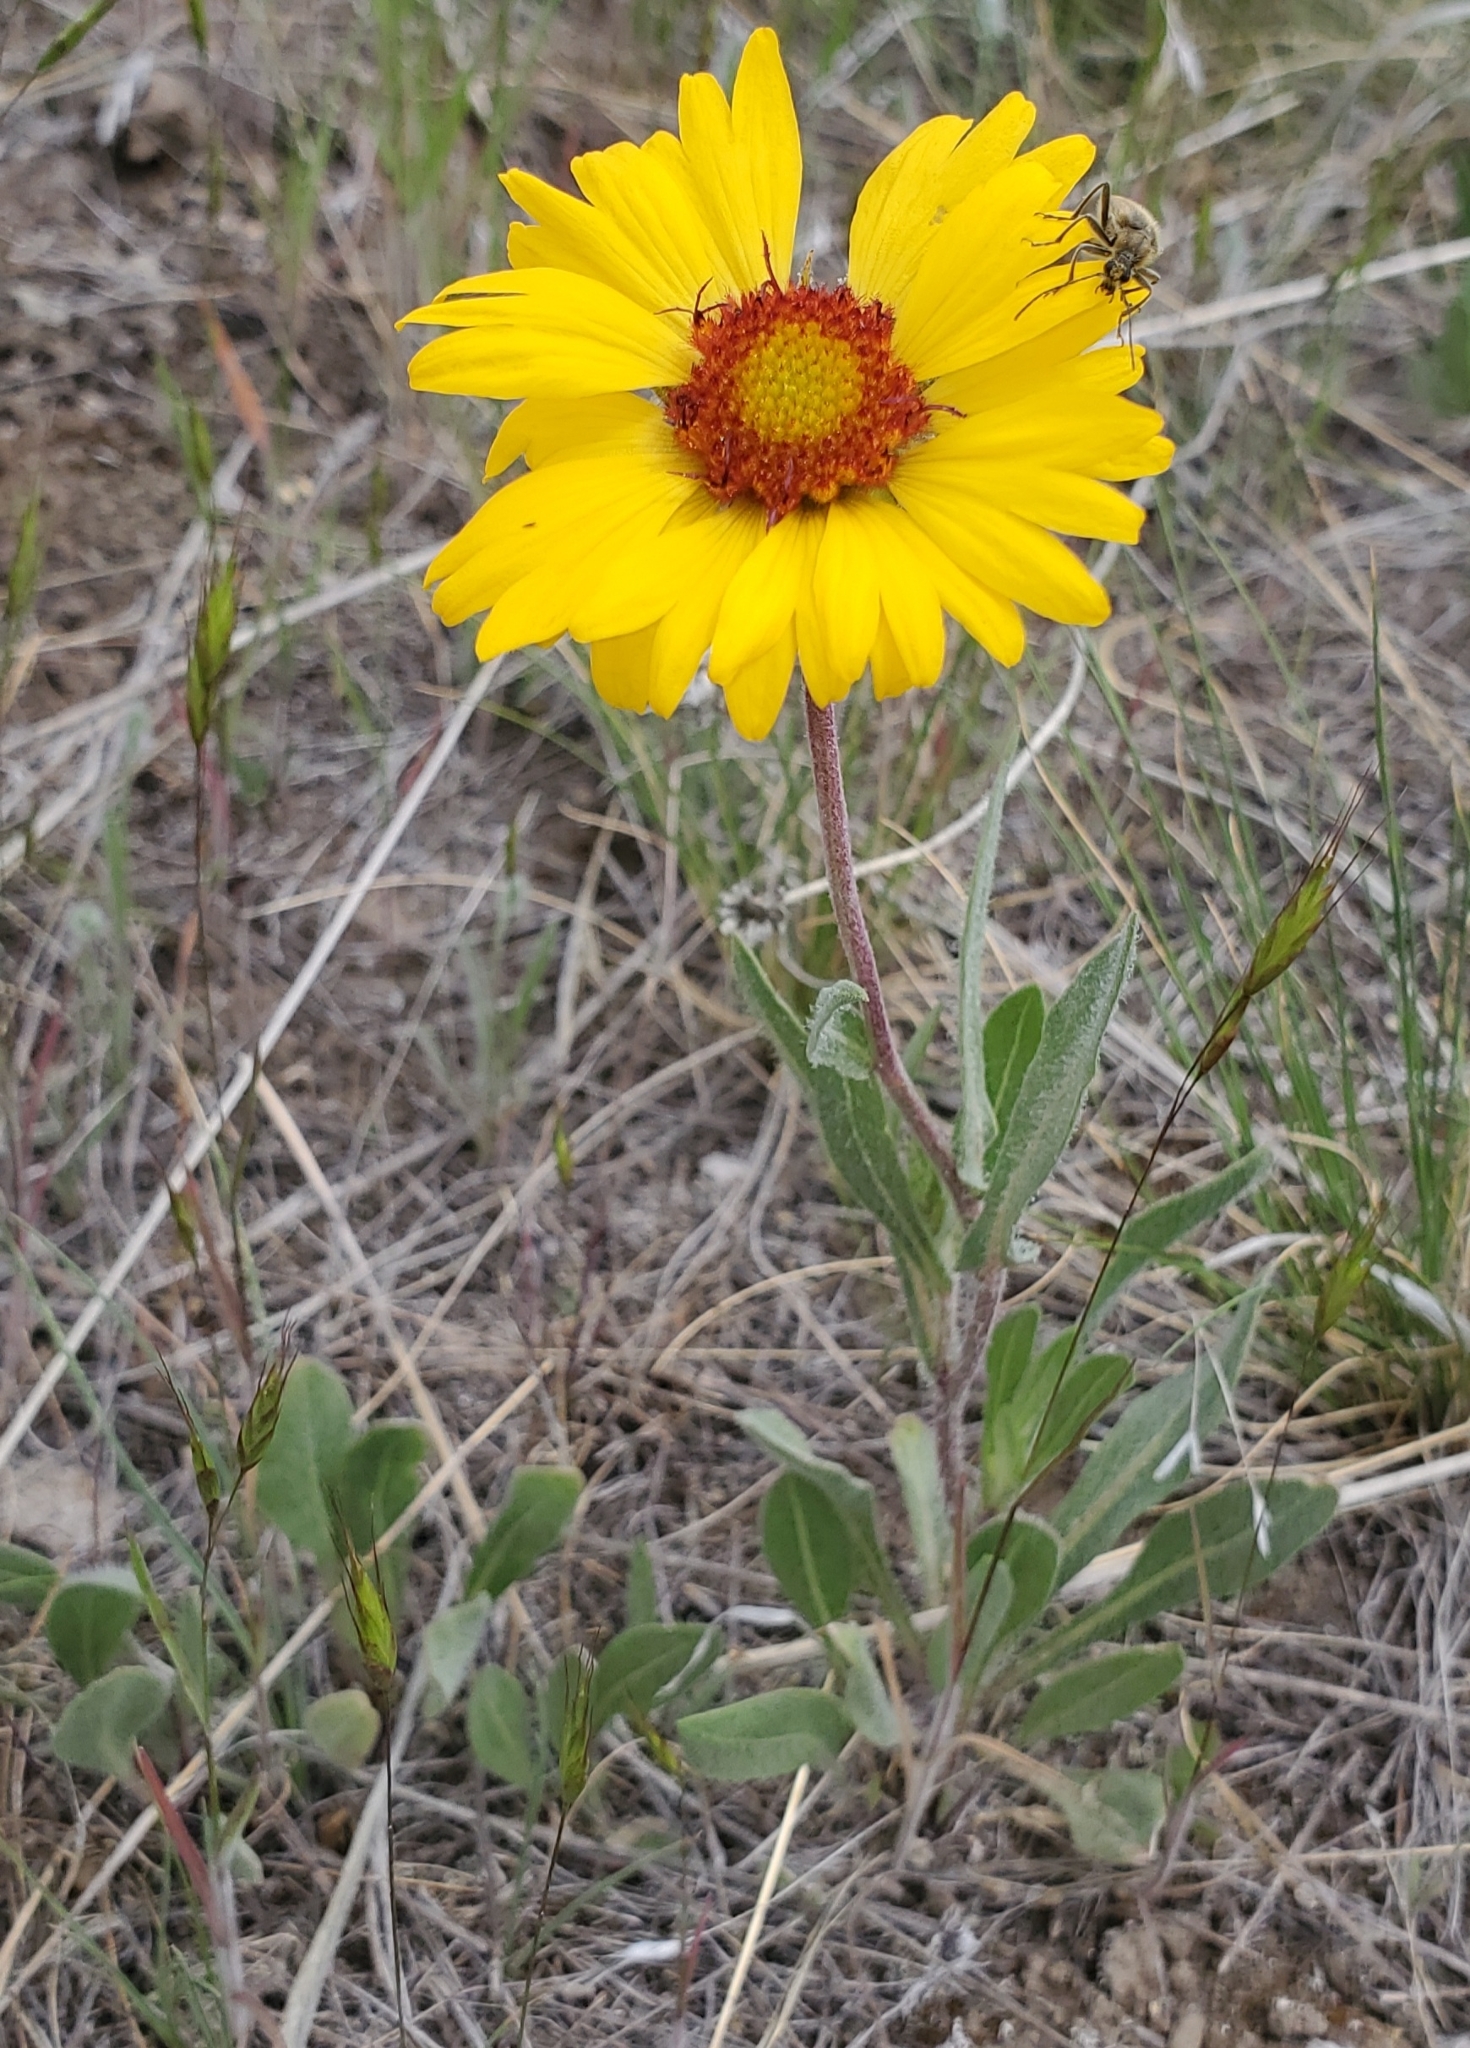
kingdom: Plantae
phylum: Tracheophyta
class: Magnoliopsida
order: Asterales
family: Asteraceae
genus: Gaillardia
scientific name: Gaillardia aristata
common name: Blanket-flower
